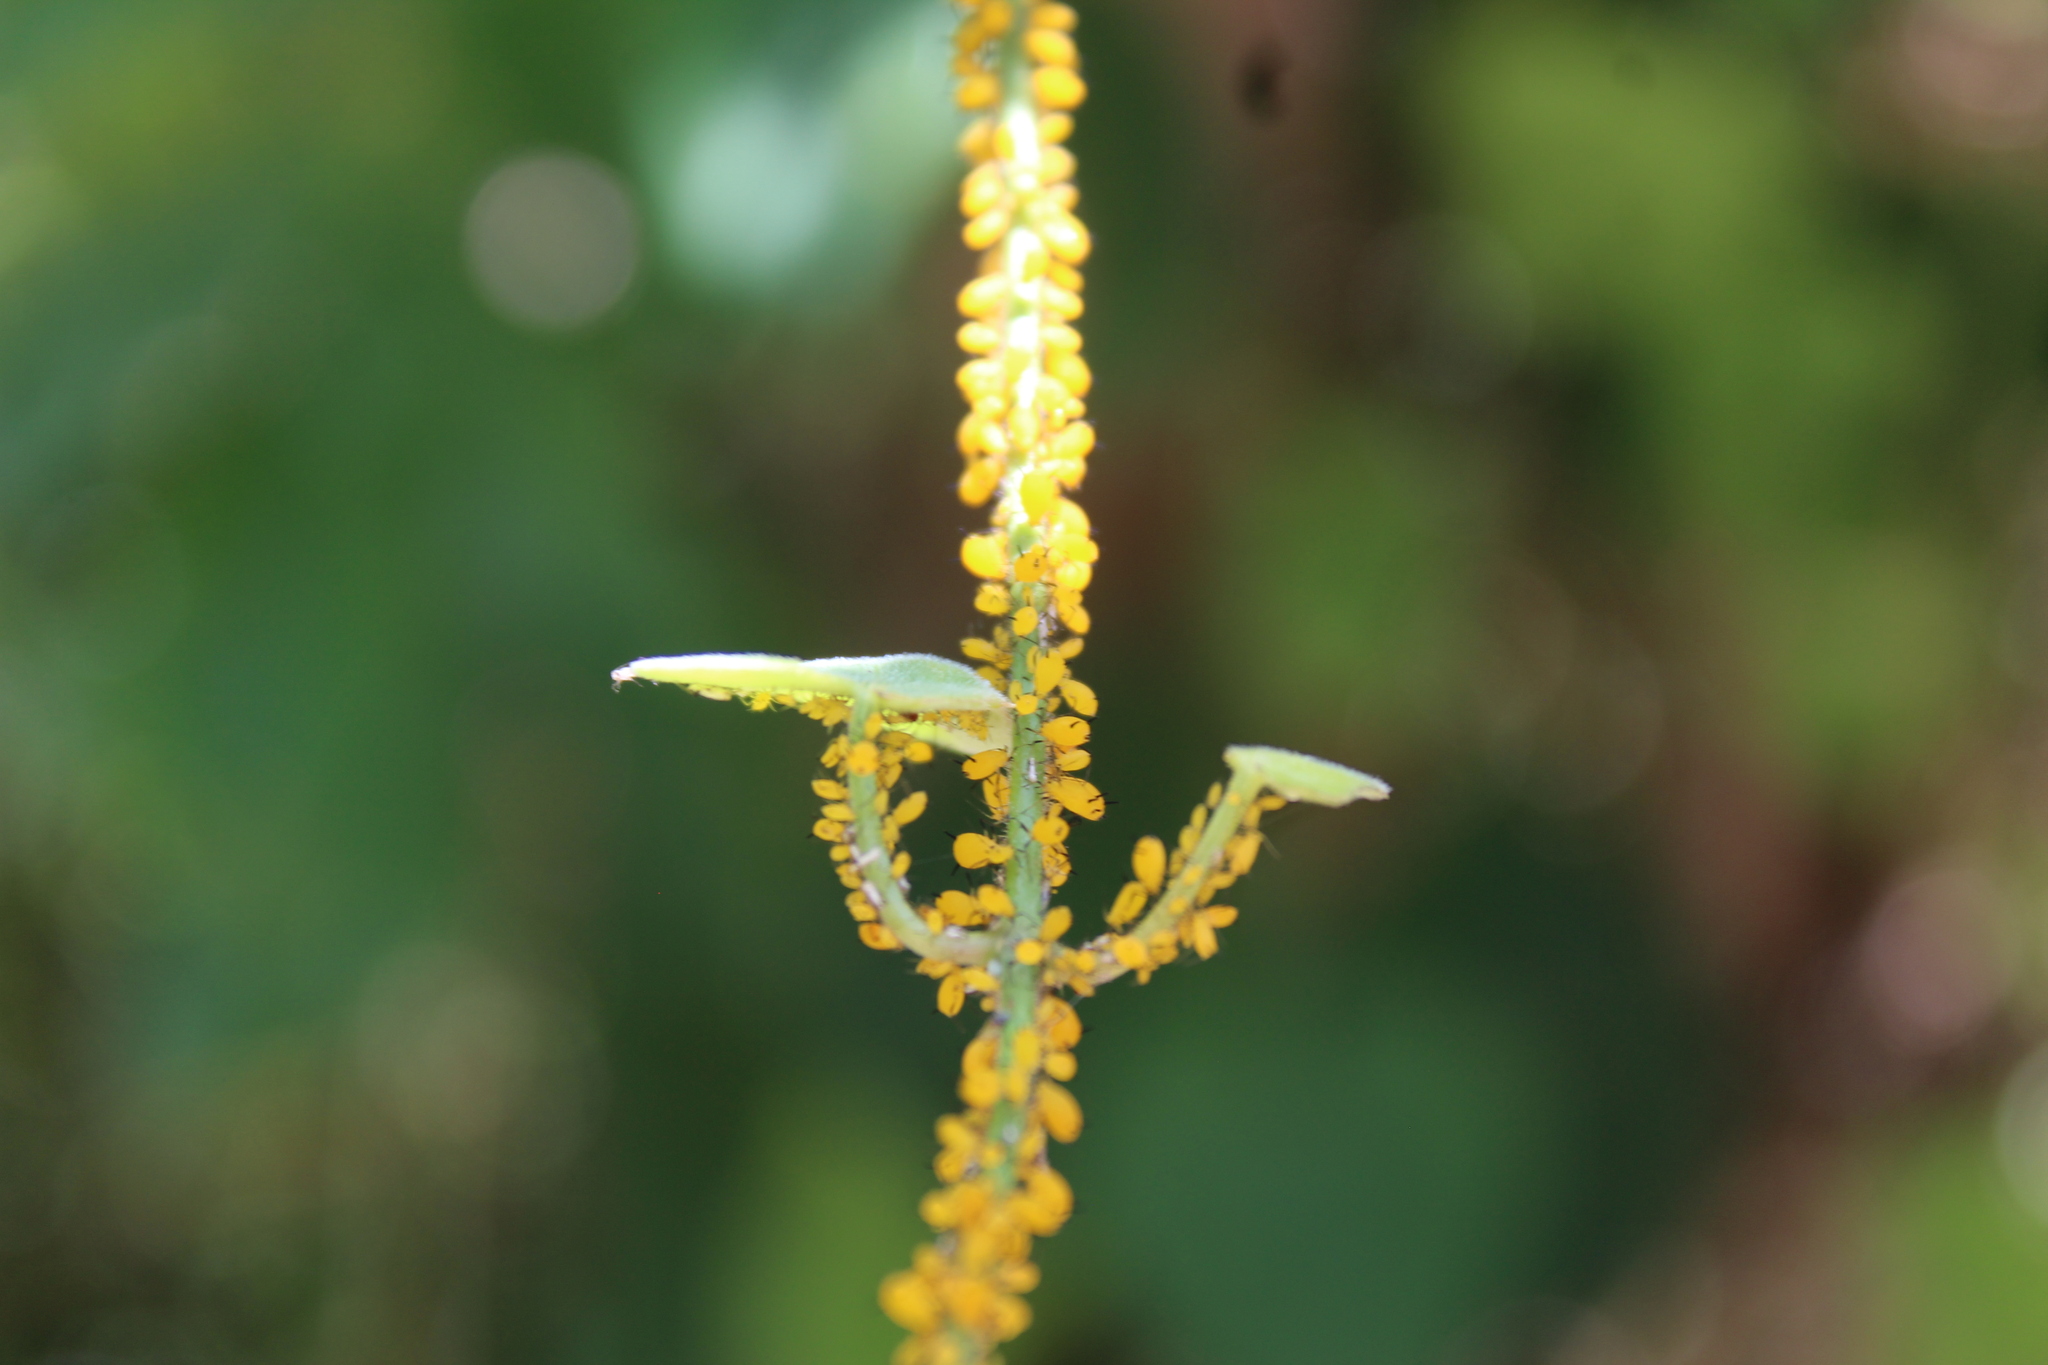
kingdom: Animalia
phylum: Arthropoda
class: Insecta
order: Hemiptera
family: Aphididae
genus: Aphis
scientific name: Aphis nerii
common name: Oleander aphid
